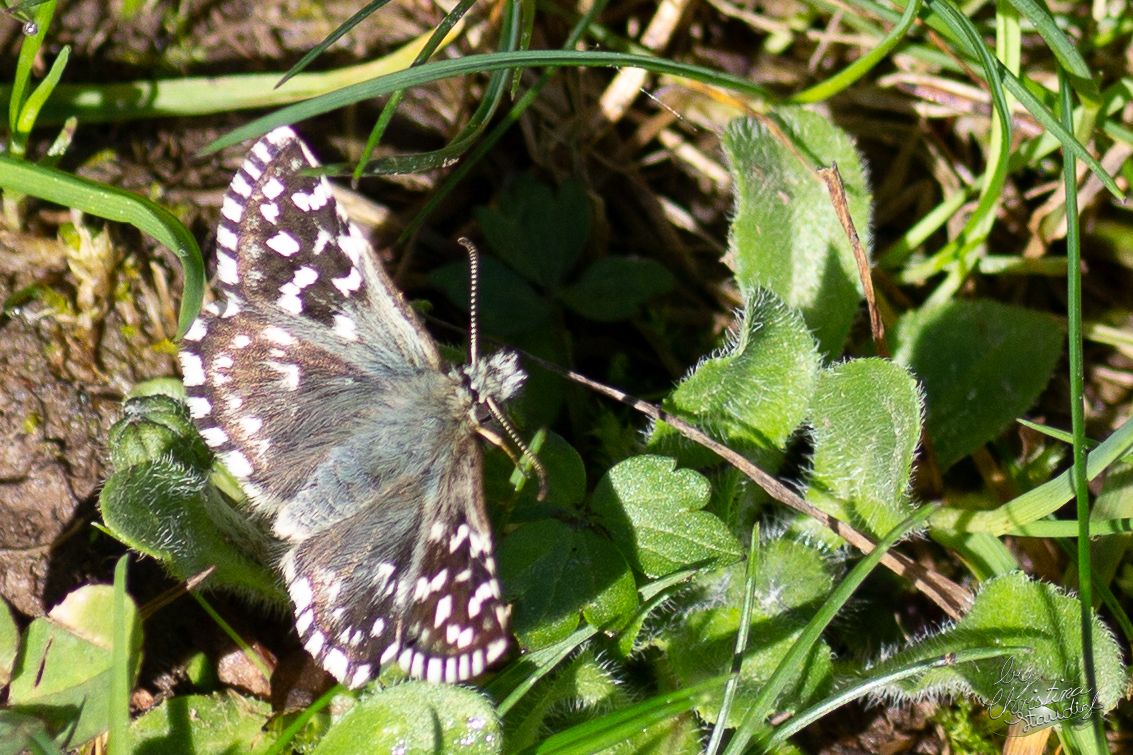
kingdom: Animalia
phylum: Arthropoda
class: Insecta
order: Lepidoptera
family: Hesperiidae
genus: Pyrgus
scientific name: Pyrgus malvae
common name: Grizzled skipper
